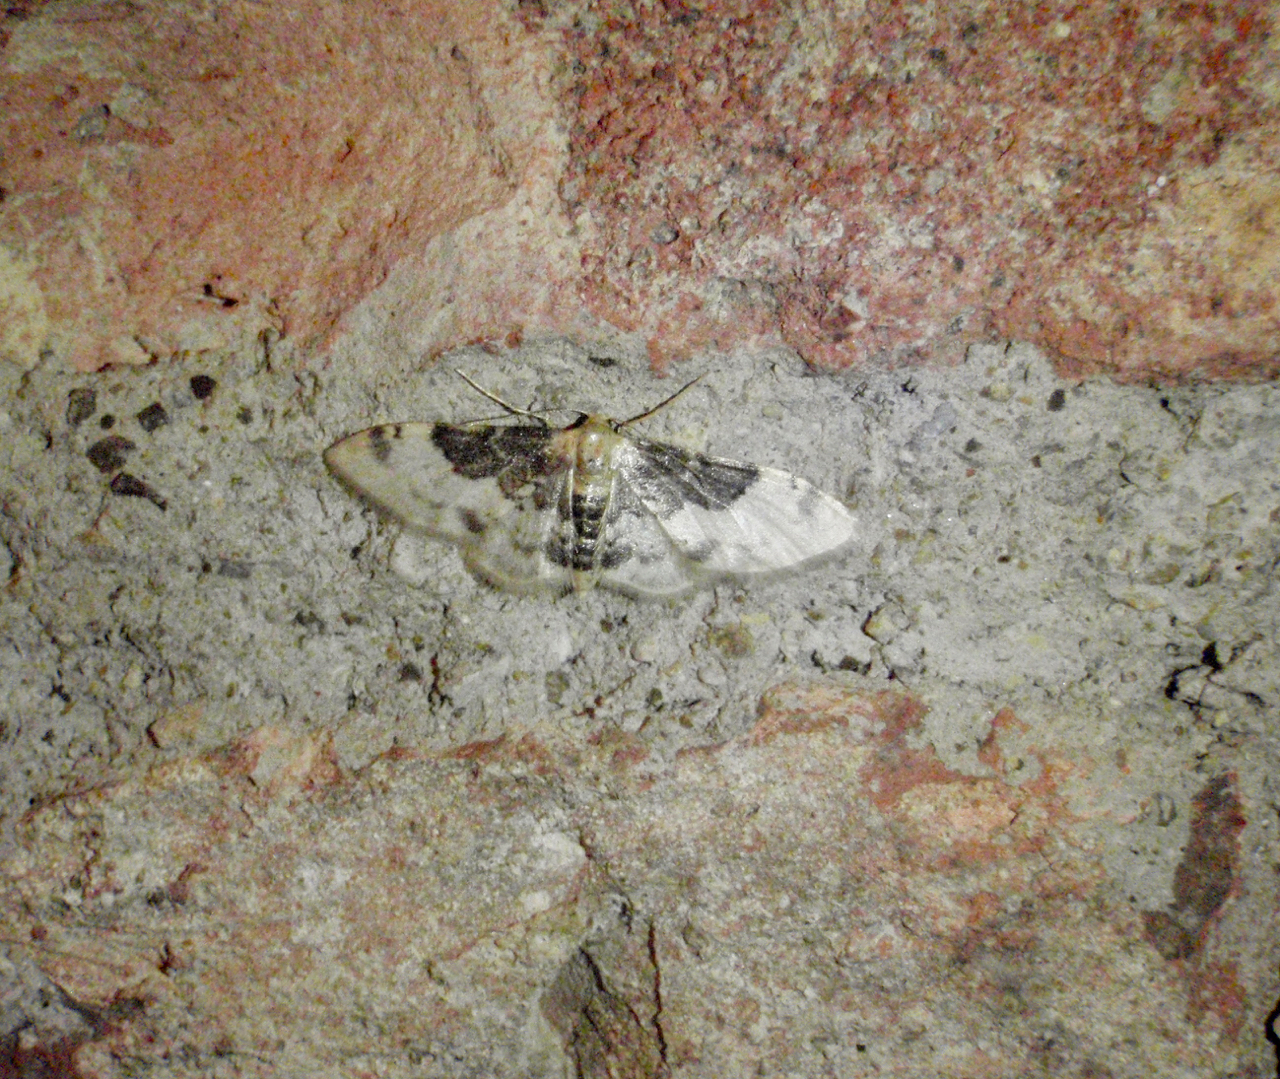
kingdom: Animalia
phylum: Arthropoda
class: Insecta
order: Lepidoptera
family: Geometridae
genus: Idaea
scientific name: Idaea filicata
